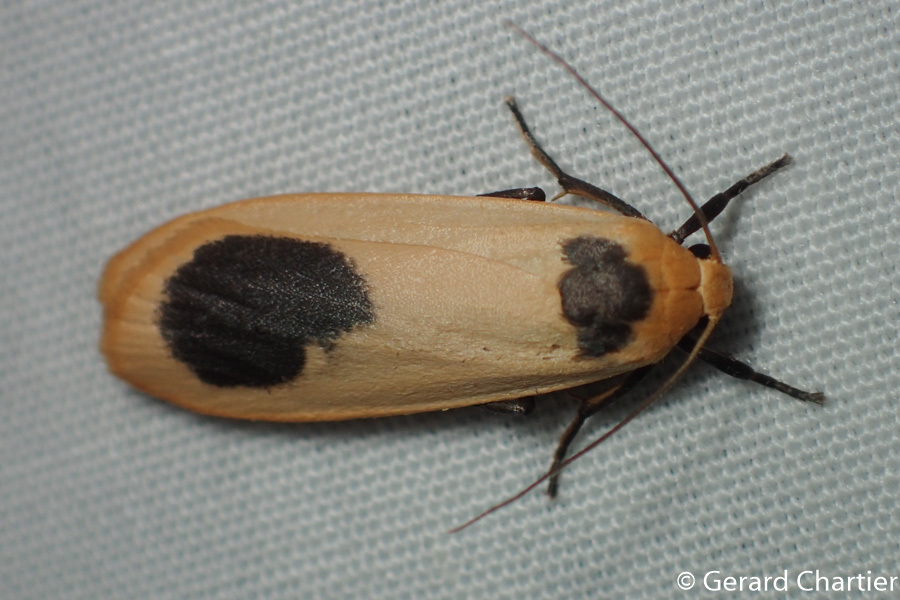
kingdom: Animalia
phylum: Arthropoda
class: Insecta
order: Lepidoptera
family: Erebidae
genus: Brunia
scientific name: Brunia gibonica
